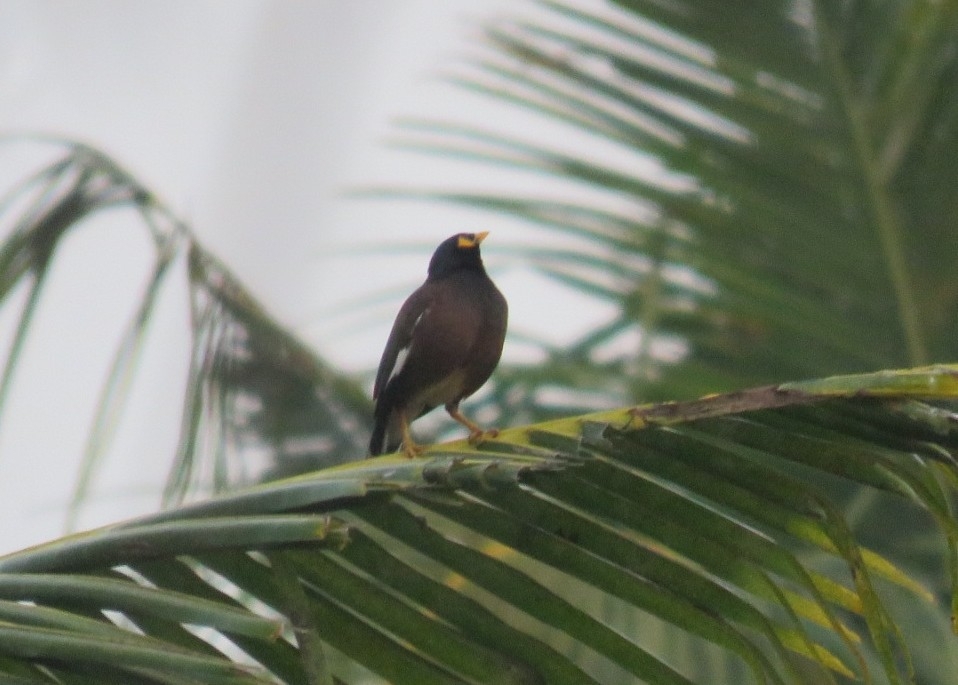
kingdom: Animalia
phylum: Chordata
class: Aves
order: Passeriformes
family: Sturnidae
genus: Acridotheres
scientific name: Acridotheres tristis
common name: Common myna
